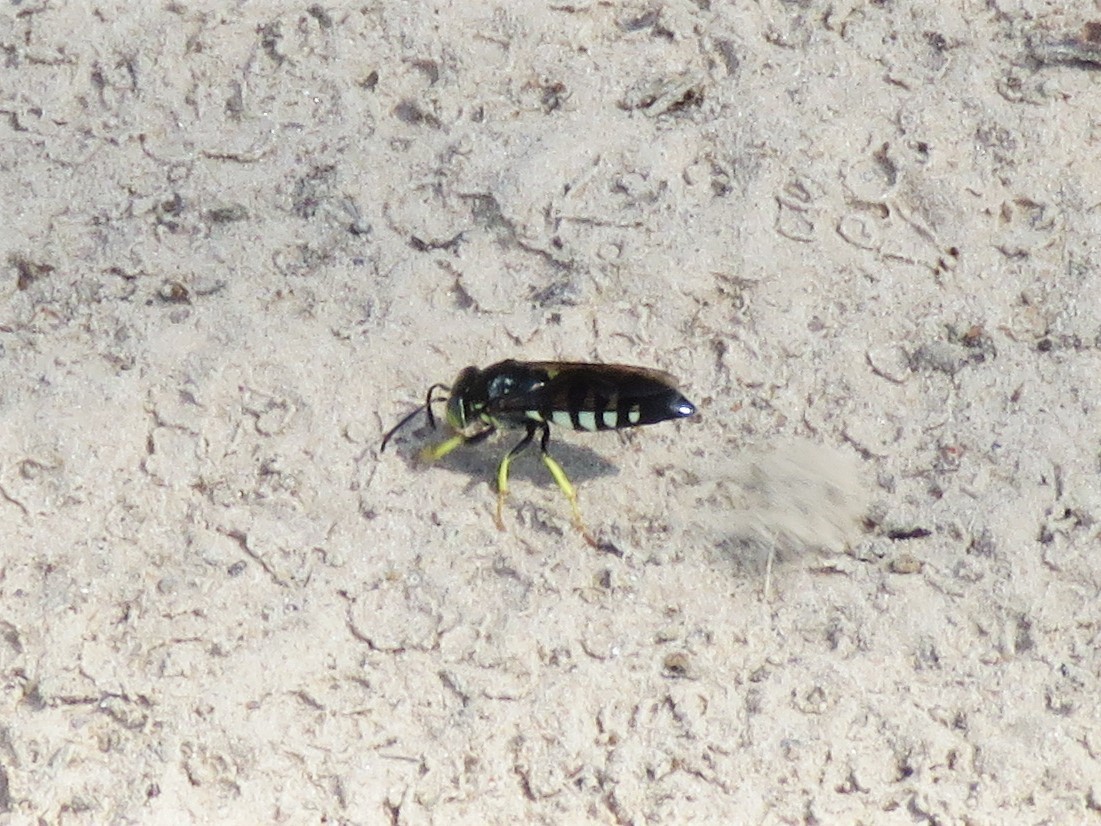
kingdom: Animalia
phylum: Arthropoda
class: Insecta
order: Hymenoptera
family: Crabronidae
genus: Bicyrtes
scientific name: Bicyrtes quadrifasciatus
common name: Four-banded stink bug hunter wasp
